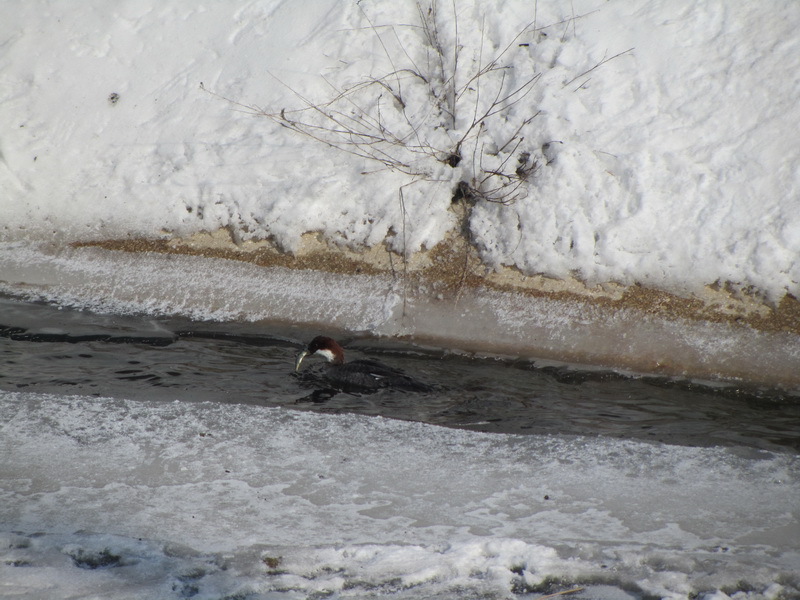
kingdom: Animalia
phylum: Chordata
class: Aves
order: Anseriformes
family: Anatidae
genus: Mergellus
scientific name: Mergellus albellus
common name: Smew
